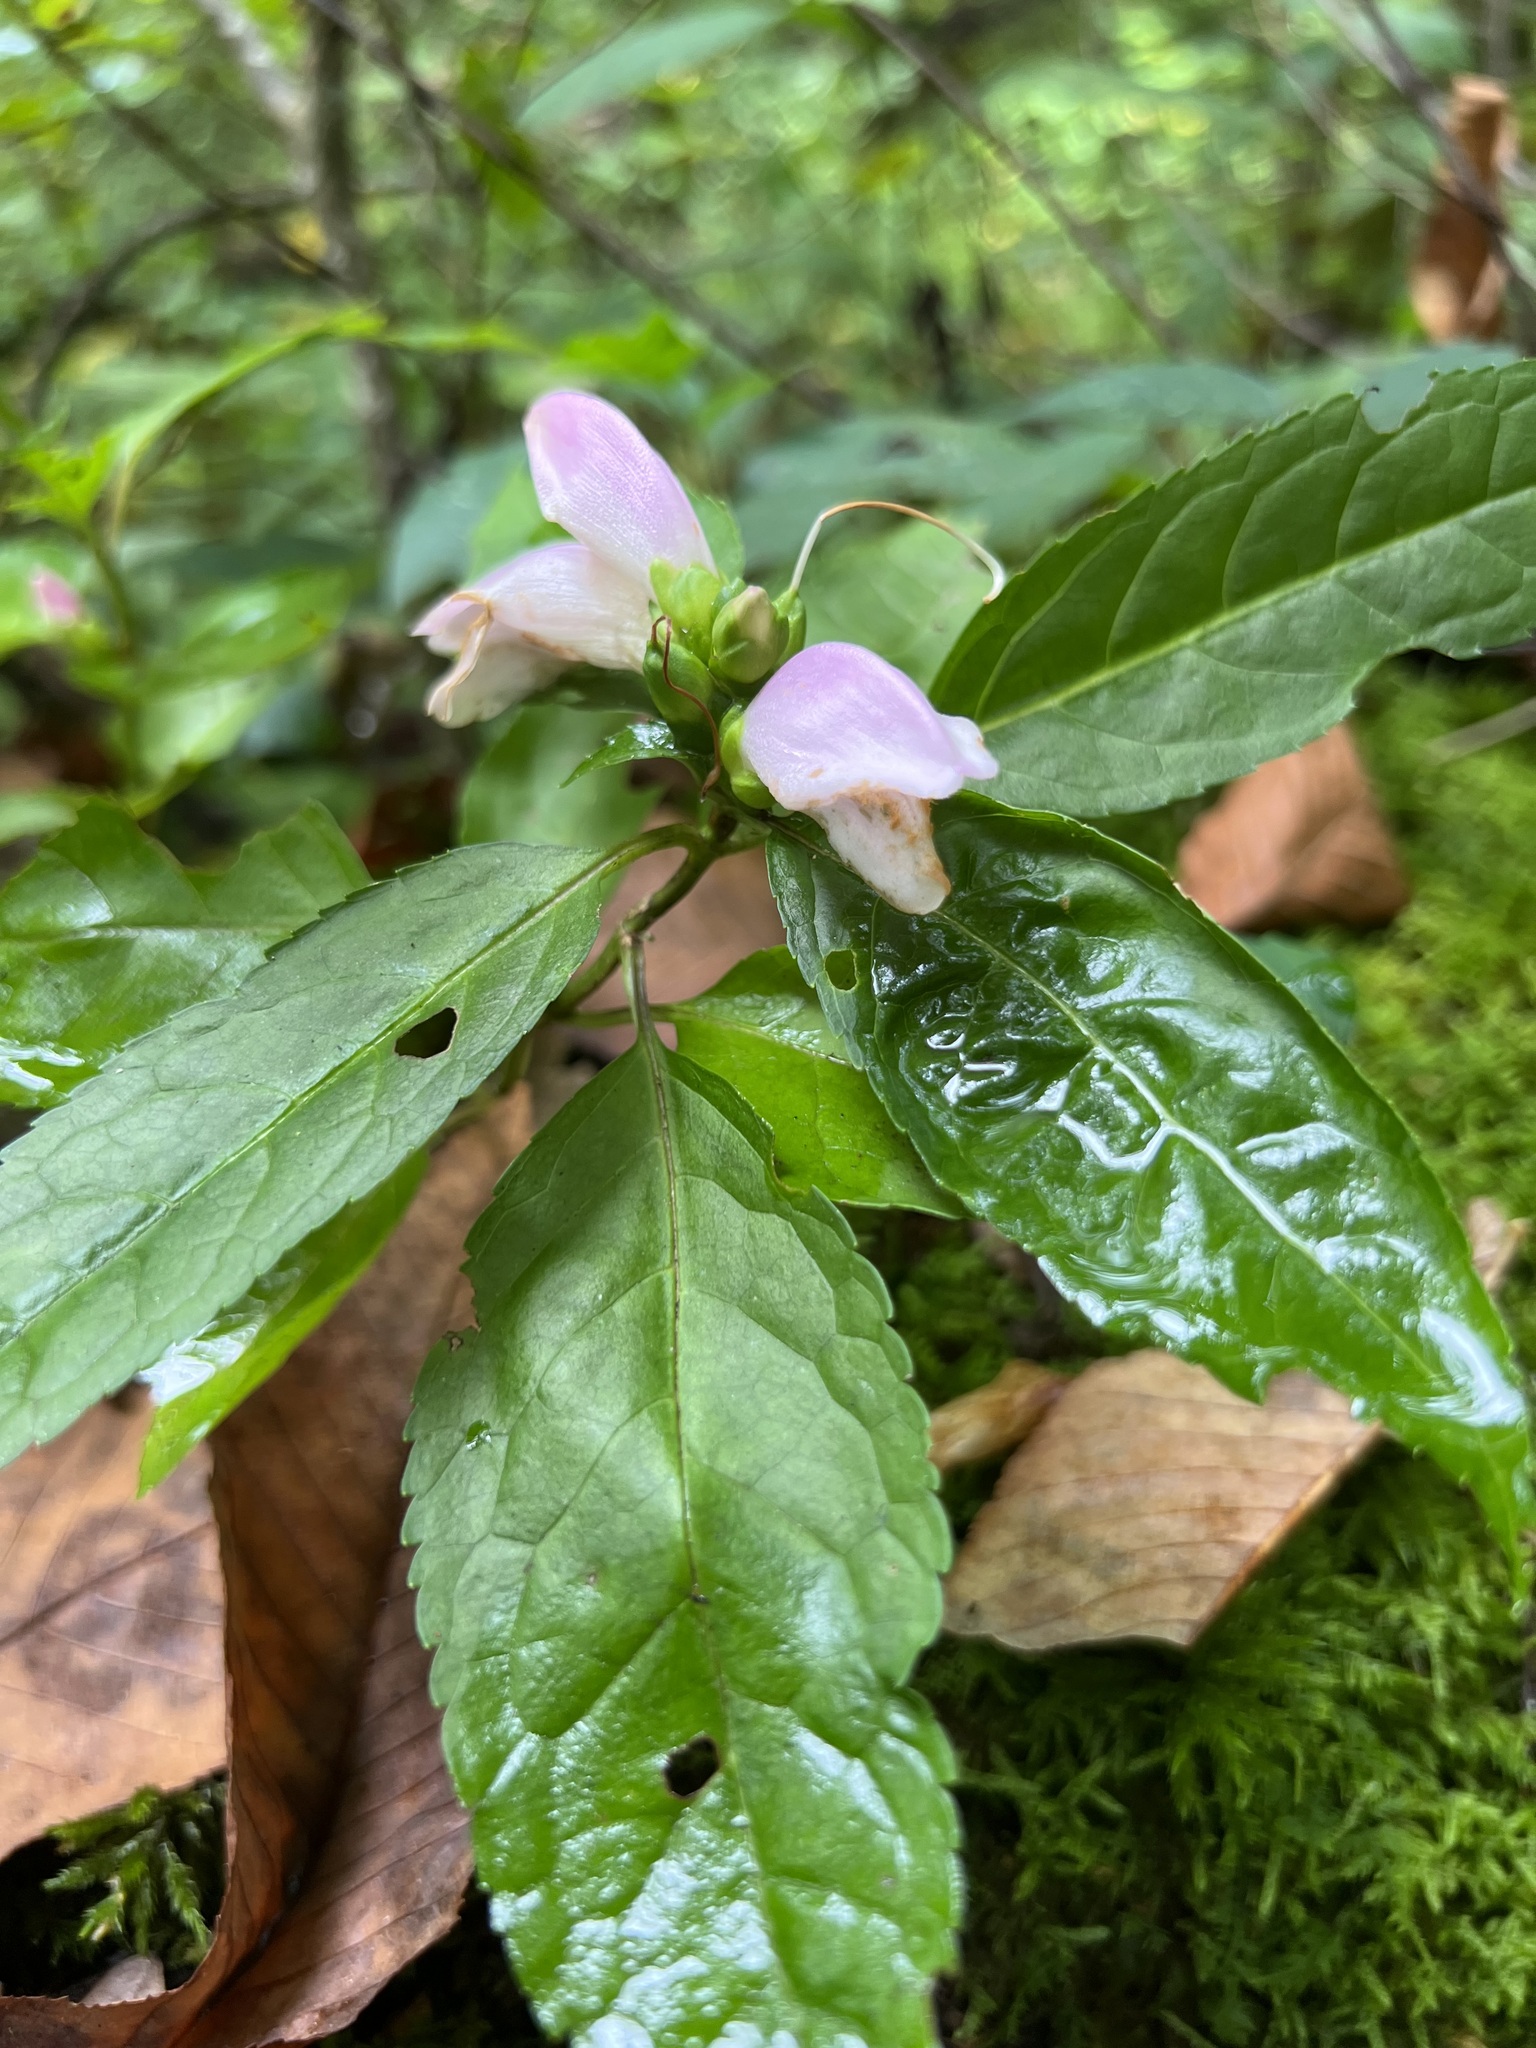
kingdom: Plantae
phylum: Tracheophyta
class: Magnoliopsida
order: Lamiales
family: Plantaginaceae
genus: Chelone
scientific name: Chelone lyonii
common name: Pink turtlehead
